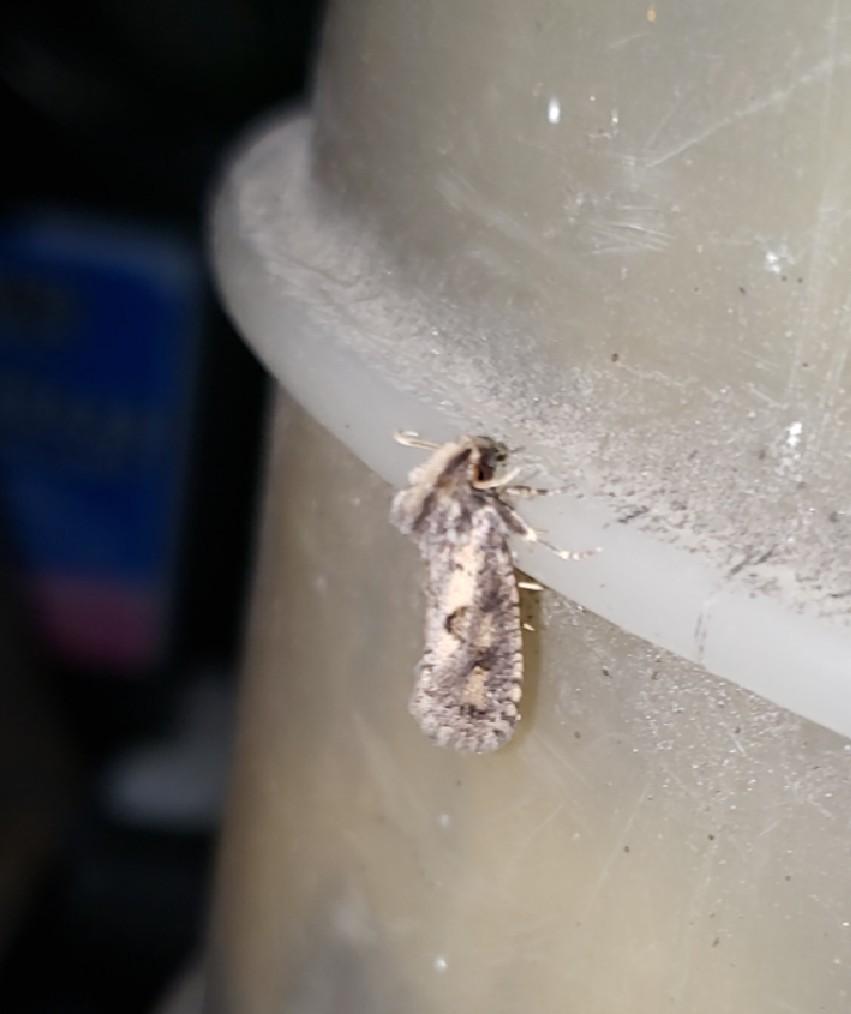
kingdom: Animalia
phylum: Arthropoda
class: Insecta
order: Lepidoptera
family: Tineidae
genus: Acrolophus
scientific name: Acrolophus popeanella
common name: Clemens' grass tubeworm moth
